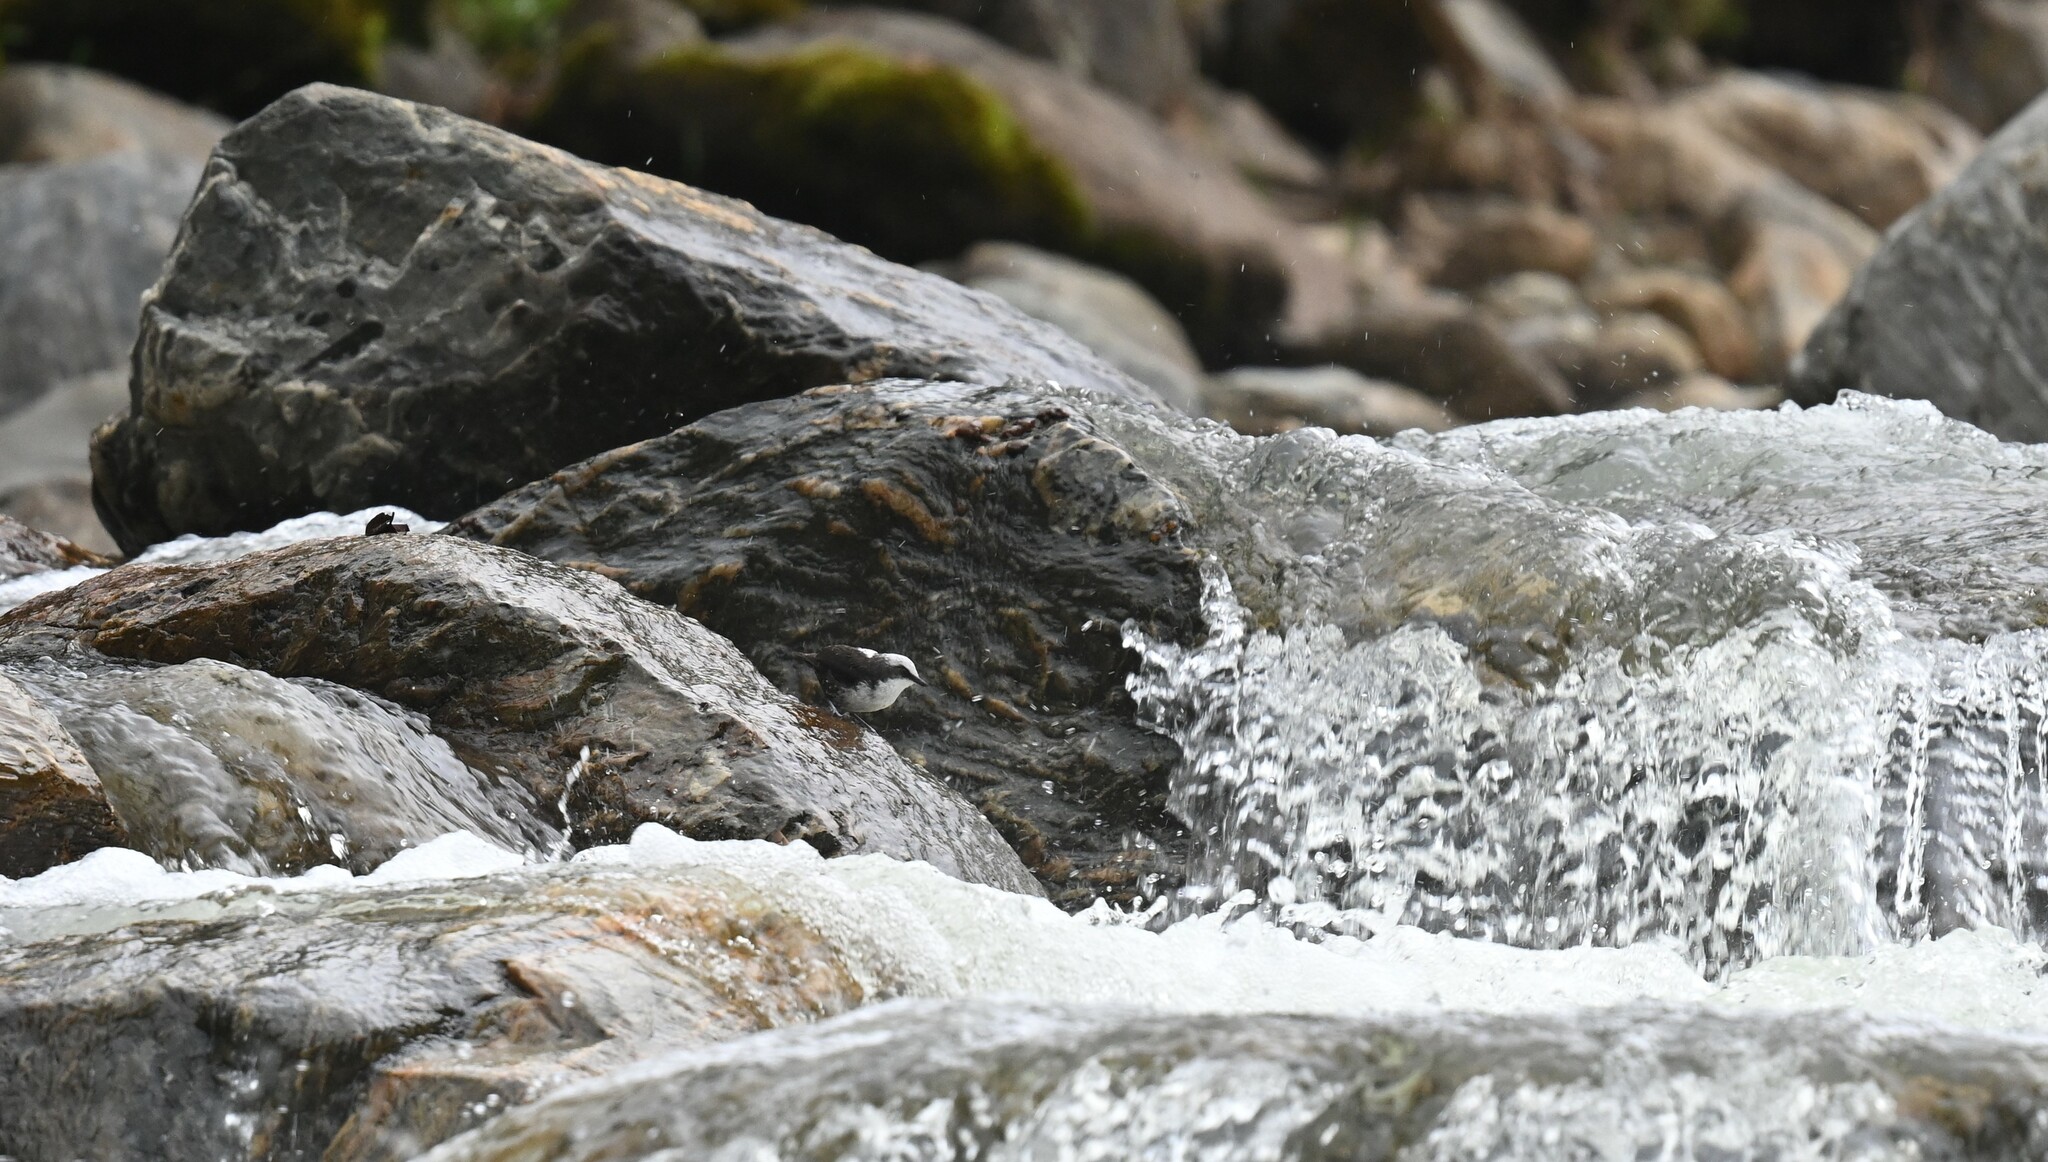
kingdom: Animalia
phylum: Chordata
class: Aves
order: Passeriformes
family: Cinclidae
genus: Cinclus
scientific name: Cinclus leucocephalus
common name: White-capped dipper
